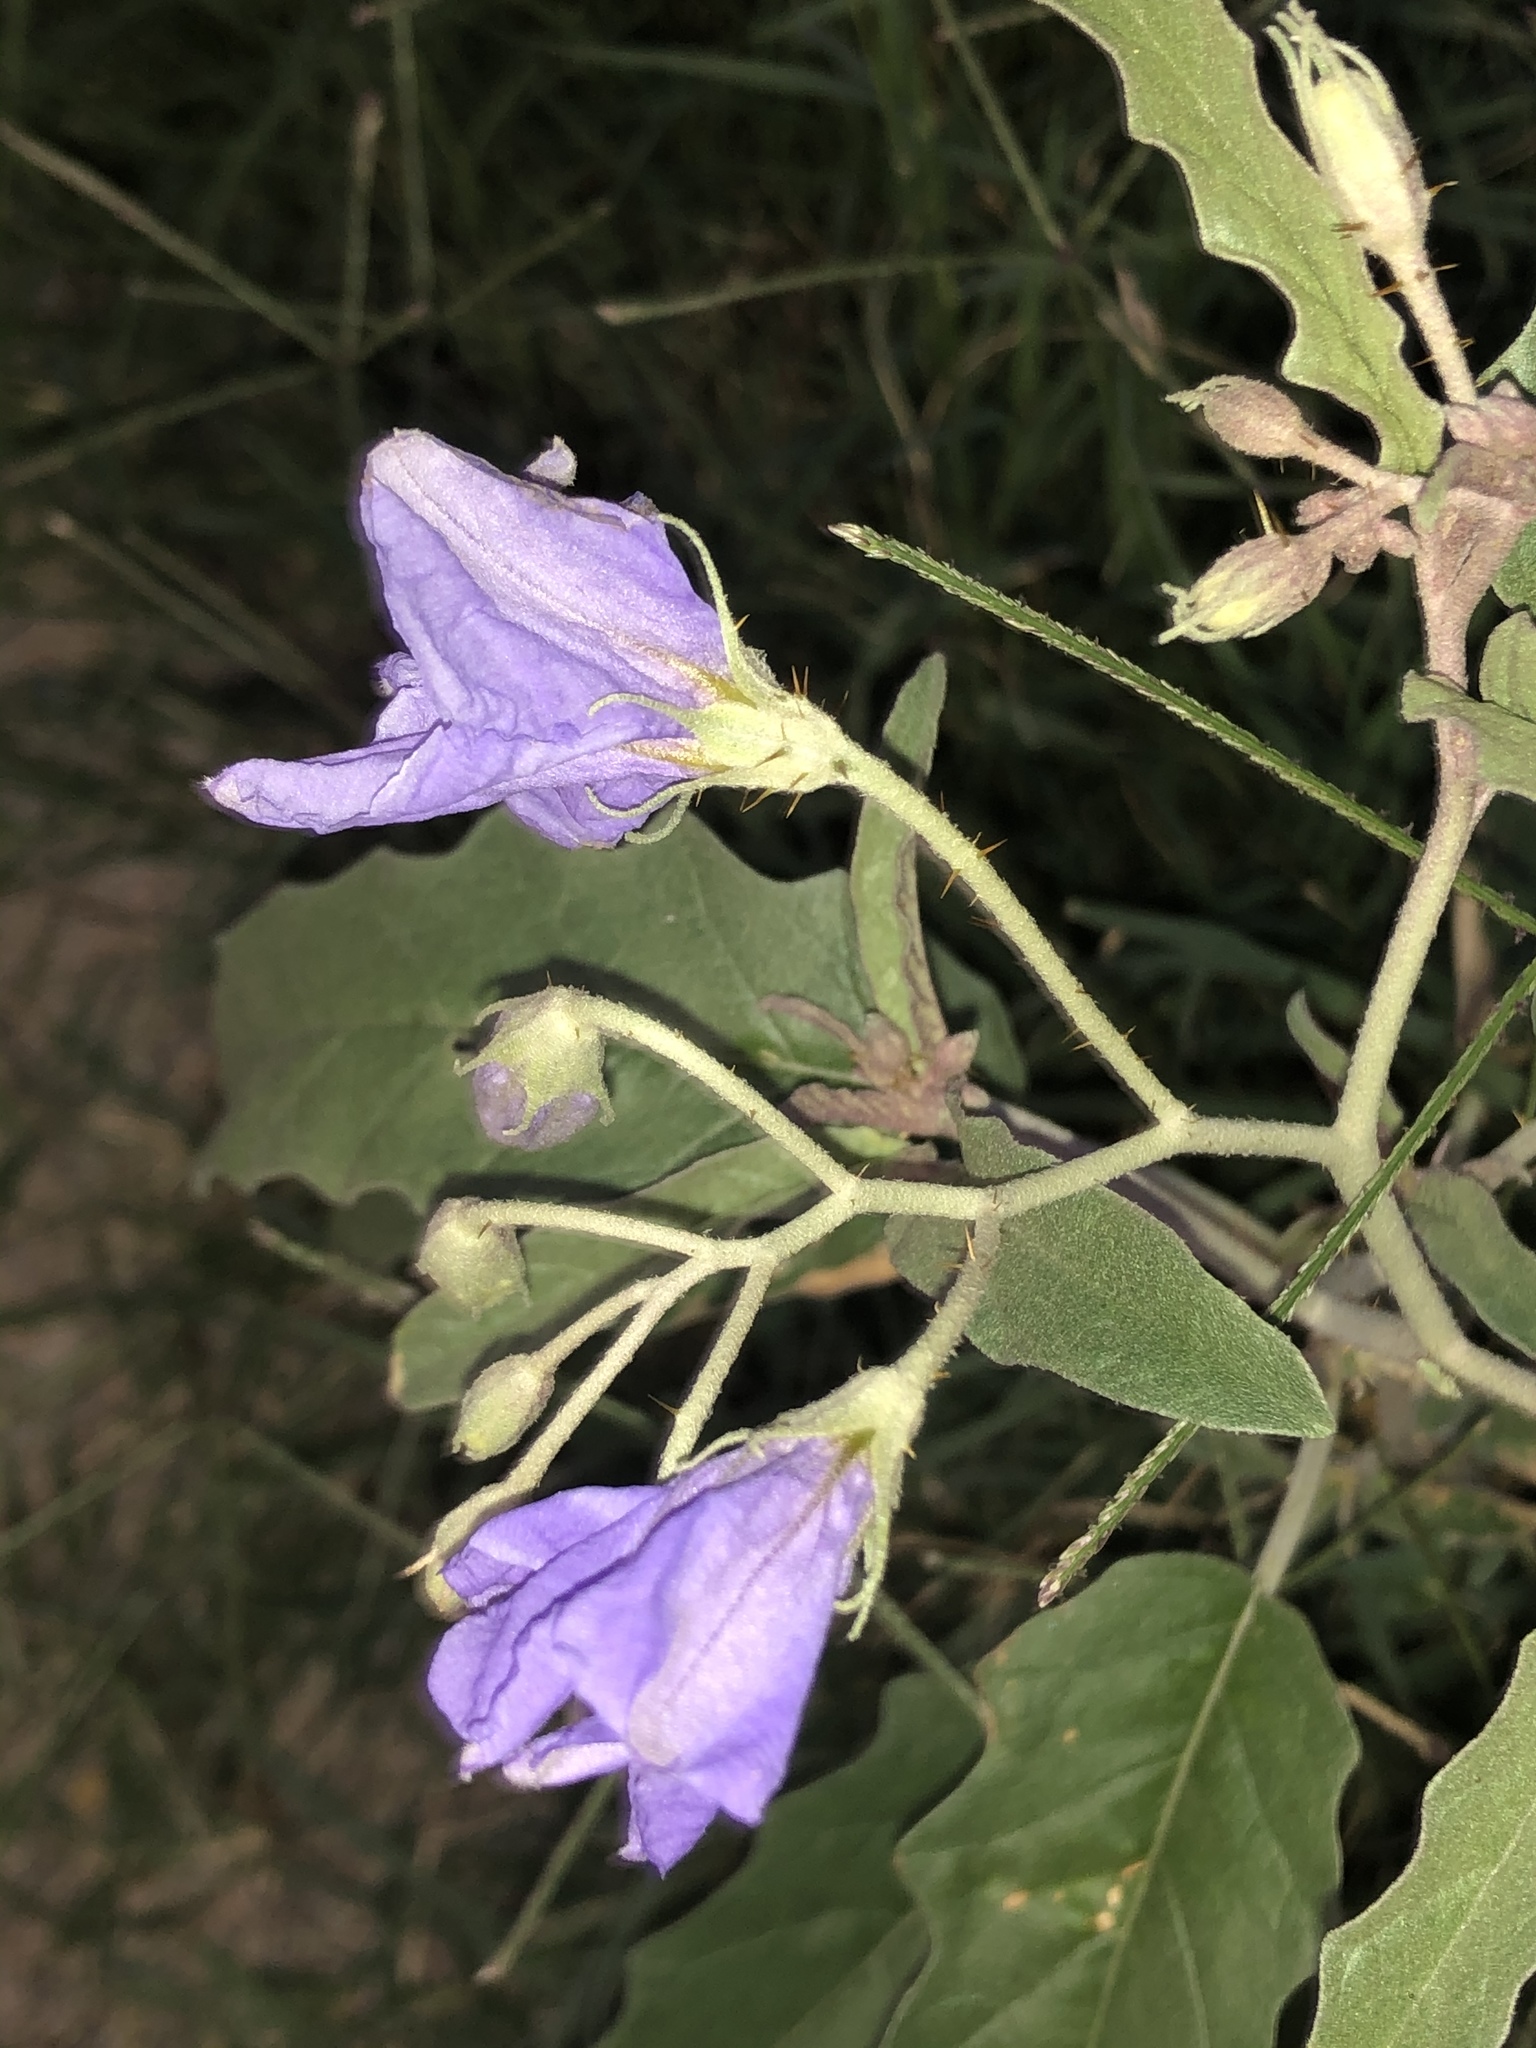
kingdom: Plantae
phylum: Tracheophyta
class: Magnoliopsida
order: Solanales
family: Solanaceae
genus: Solanum
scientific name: Solanum elaeagnifolium
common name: Silverleaf nightshade
